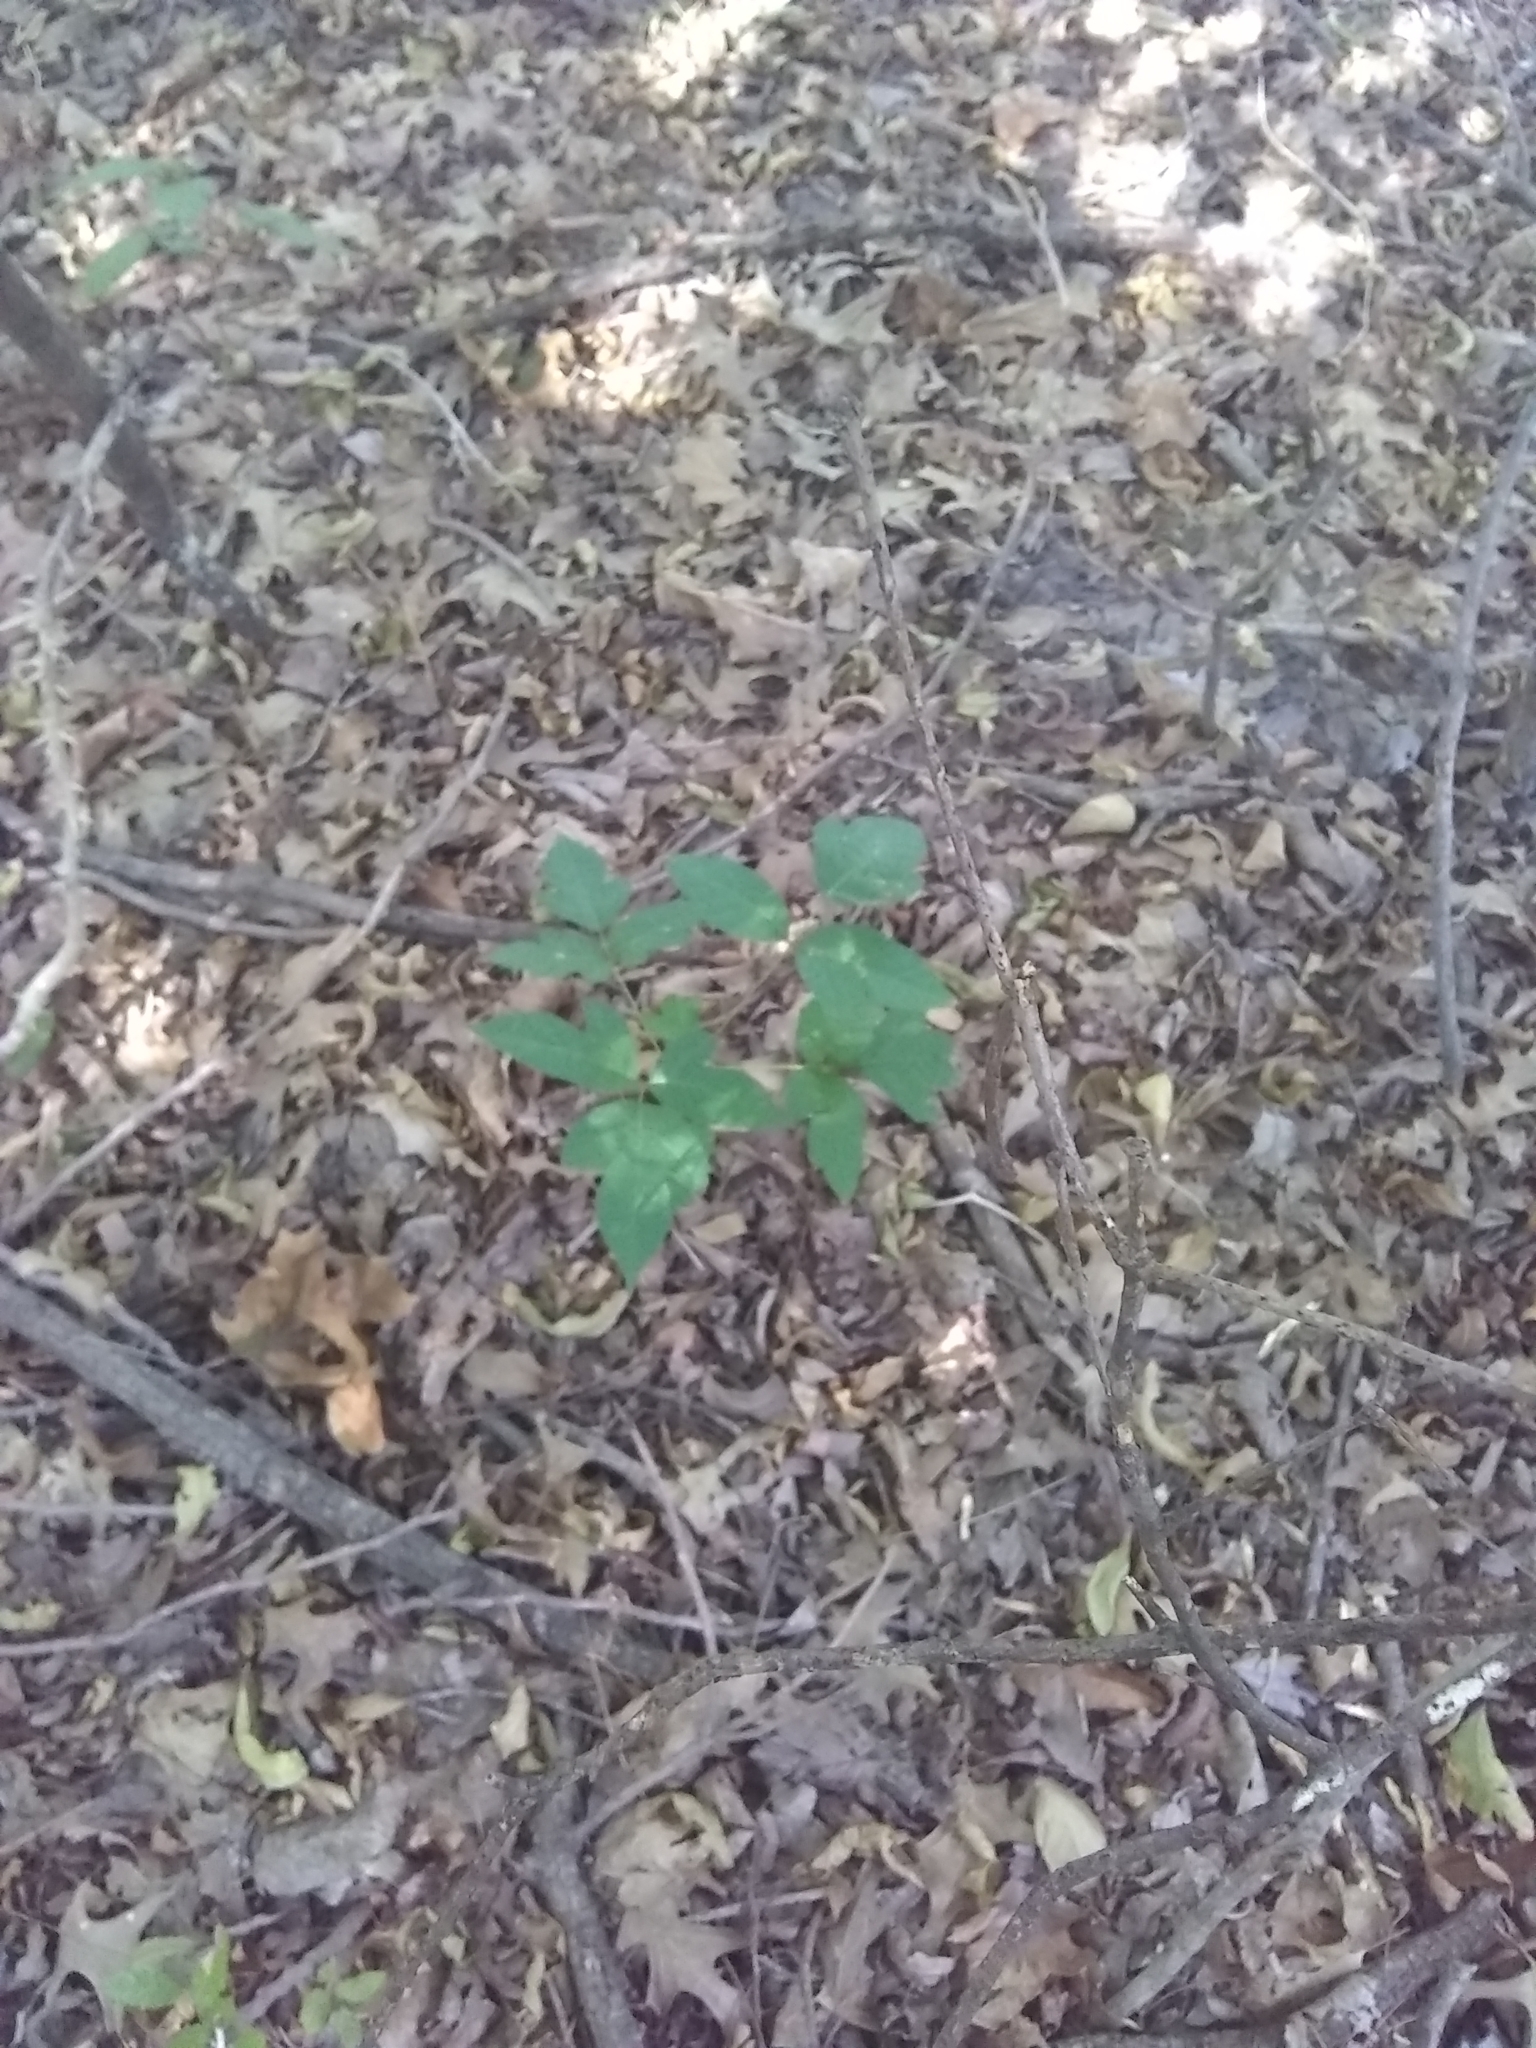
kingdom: Plantae
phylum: Tracheophyta
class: Magnoliopsida
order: Sapindales
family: Anacardiaceae
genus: Toxicodendron
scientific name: Toxicodendron radicans
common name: Poison ivy
